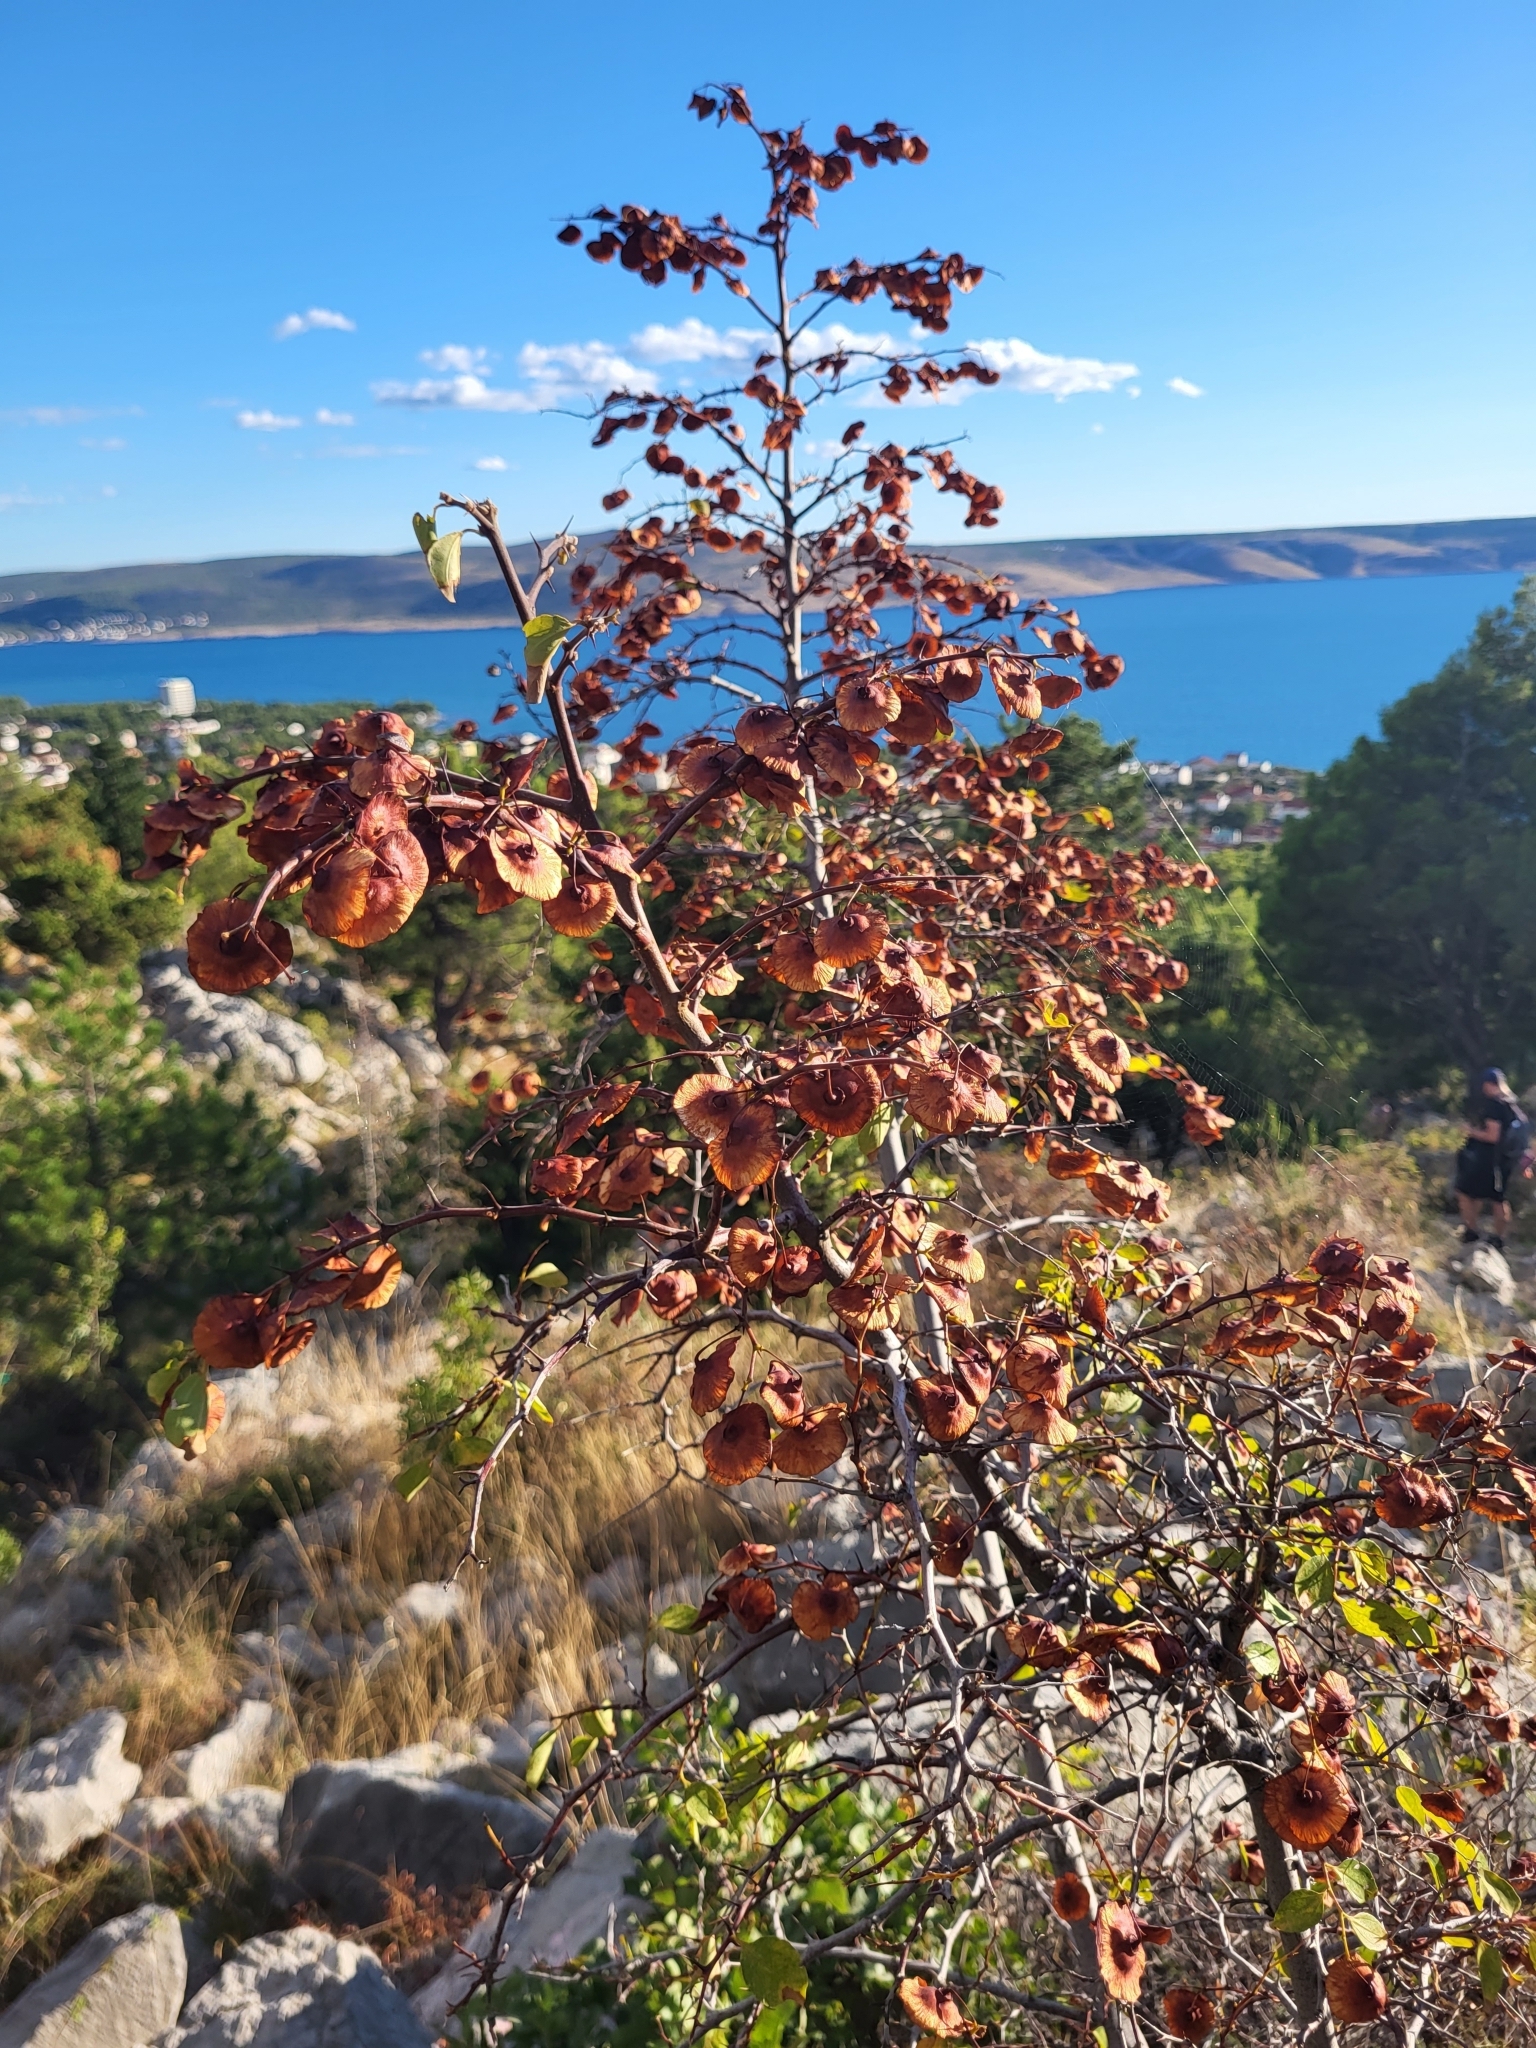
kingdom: Plantae
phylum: Tracheophyta
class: Magnoliopsida
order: Rosales
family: Rhamnaceae
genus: Paliurus
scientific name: Paliurus spina-christi
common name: Jeruselem thorn
